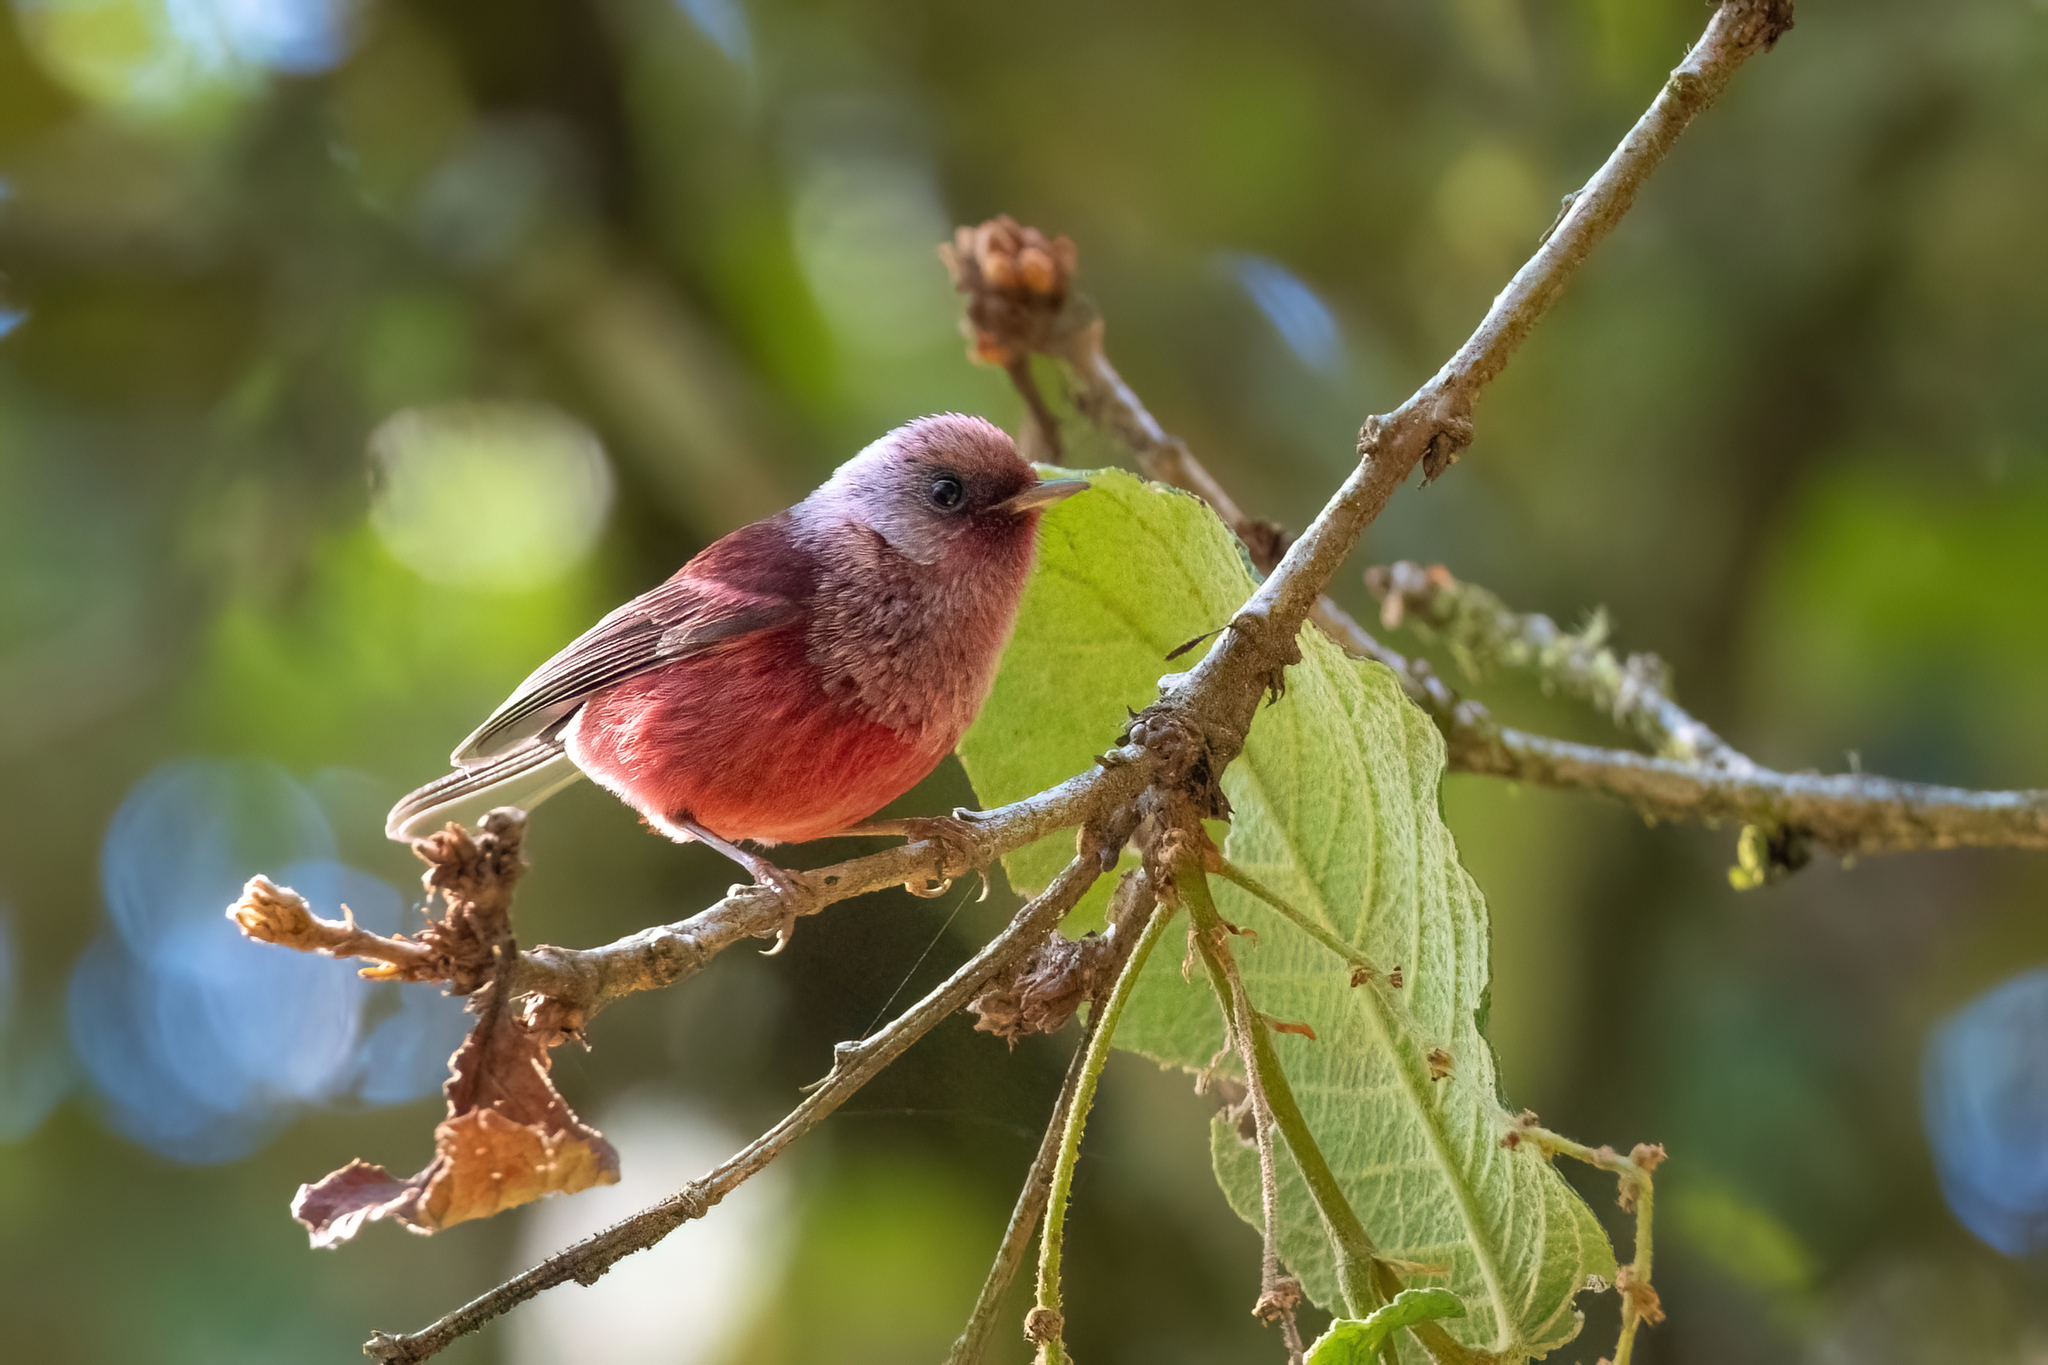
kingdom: Animalia
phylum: Chordata
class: Aves
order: Passeriformes
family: Parulidae
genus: Cardellina
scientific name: Cardellina versicolor
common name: Pink-headed warbler
